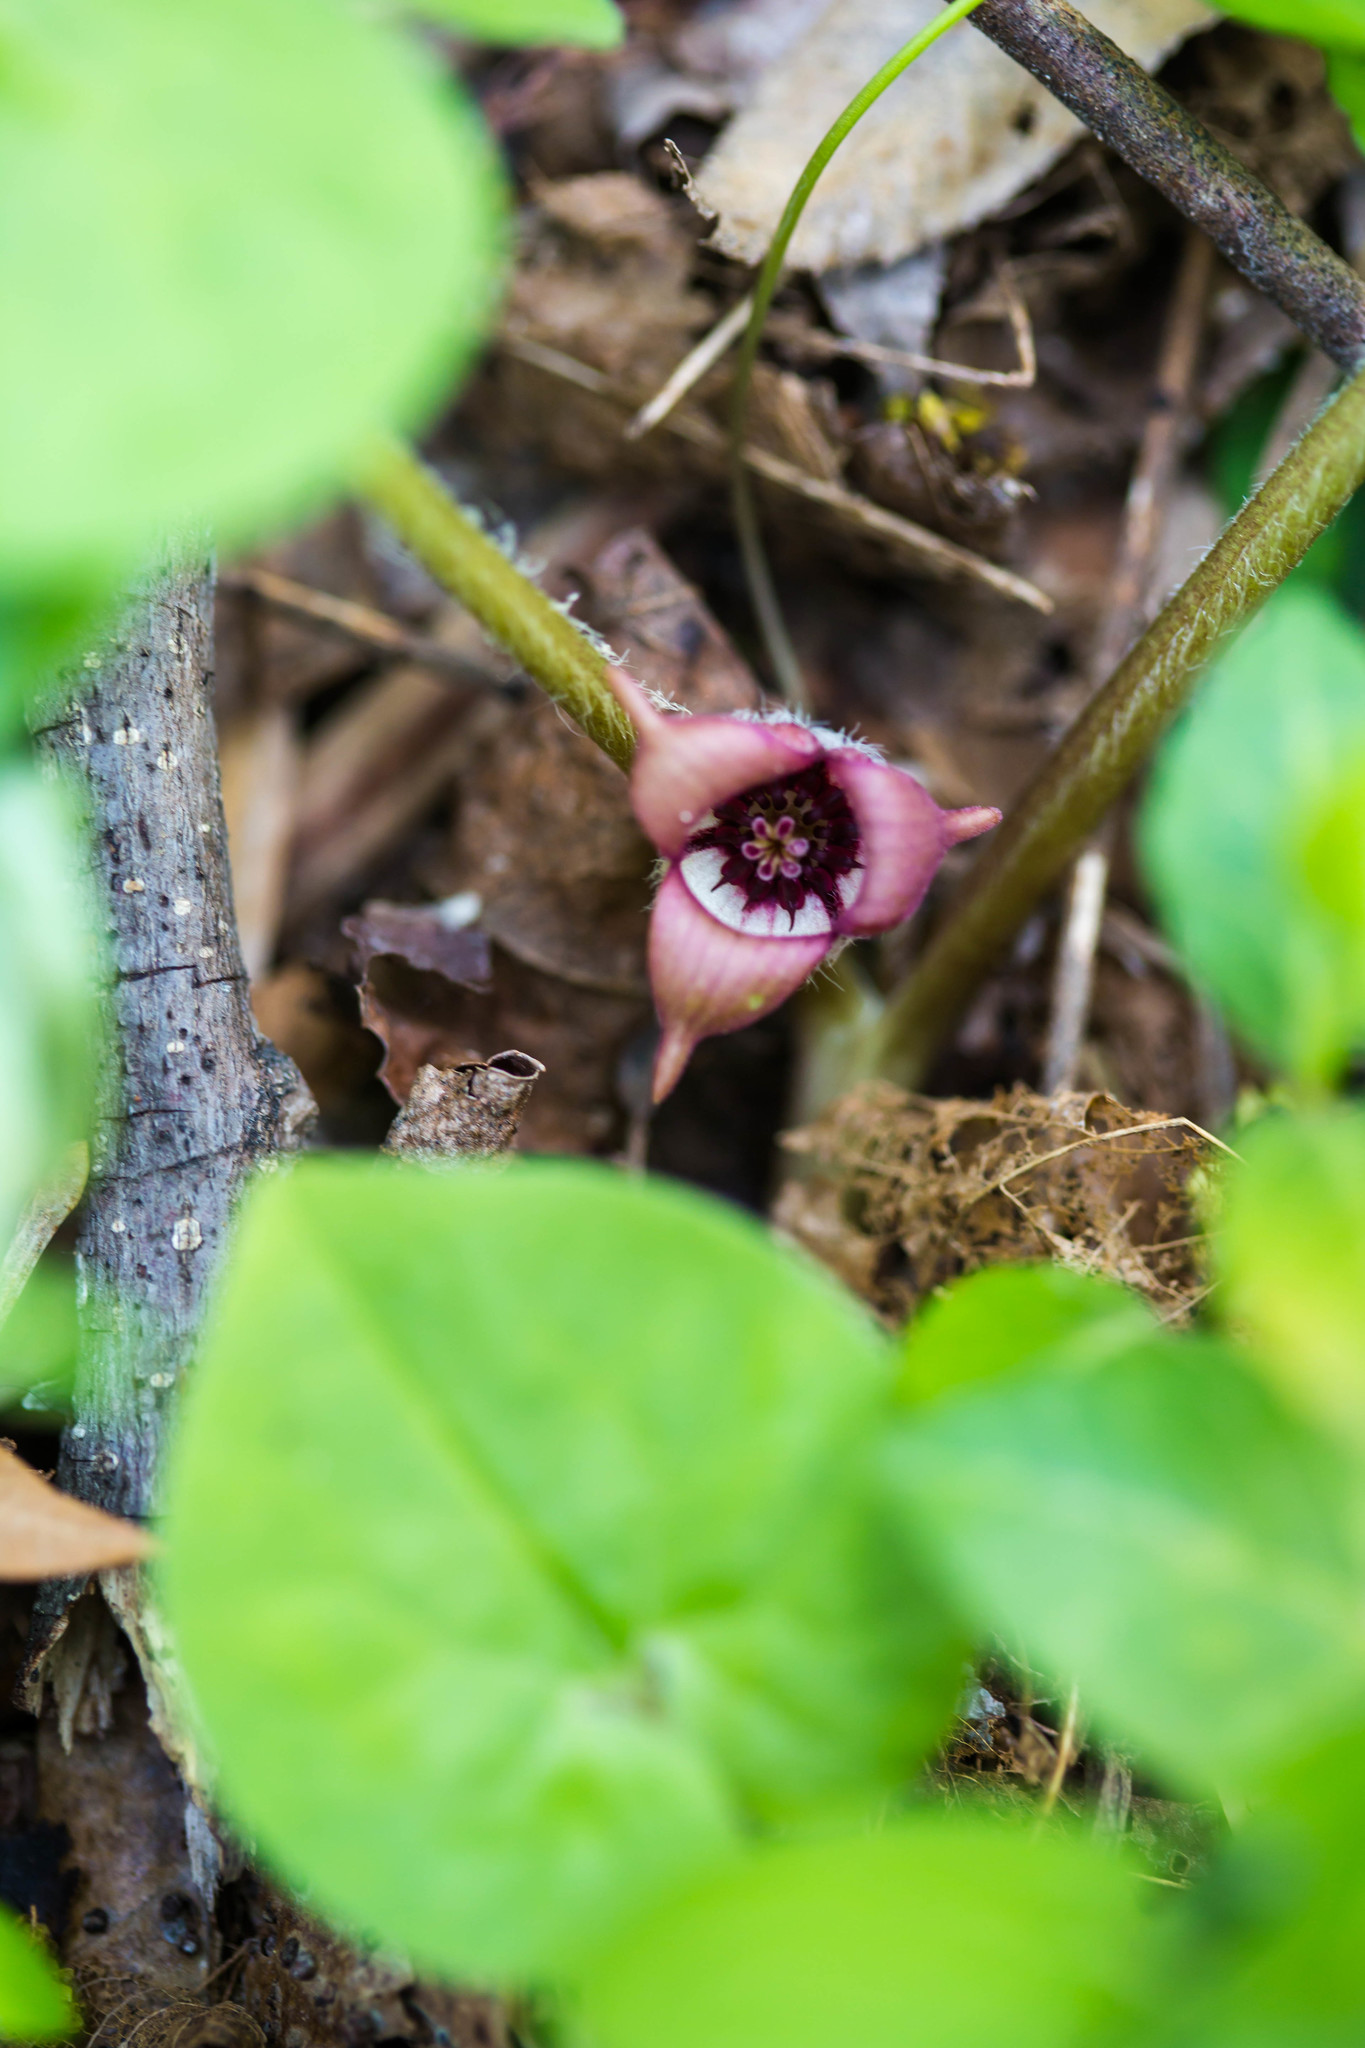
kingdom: Plantae
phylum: Tracheophyta
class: Magnoliopsida
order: Piperales
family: Aristolochiaceae
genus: Asarum
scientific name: Asarum canadense
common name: Wild ginger
